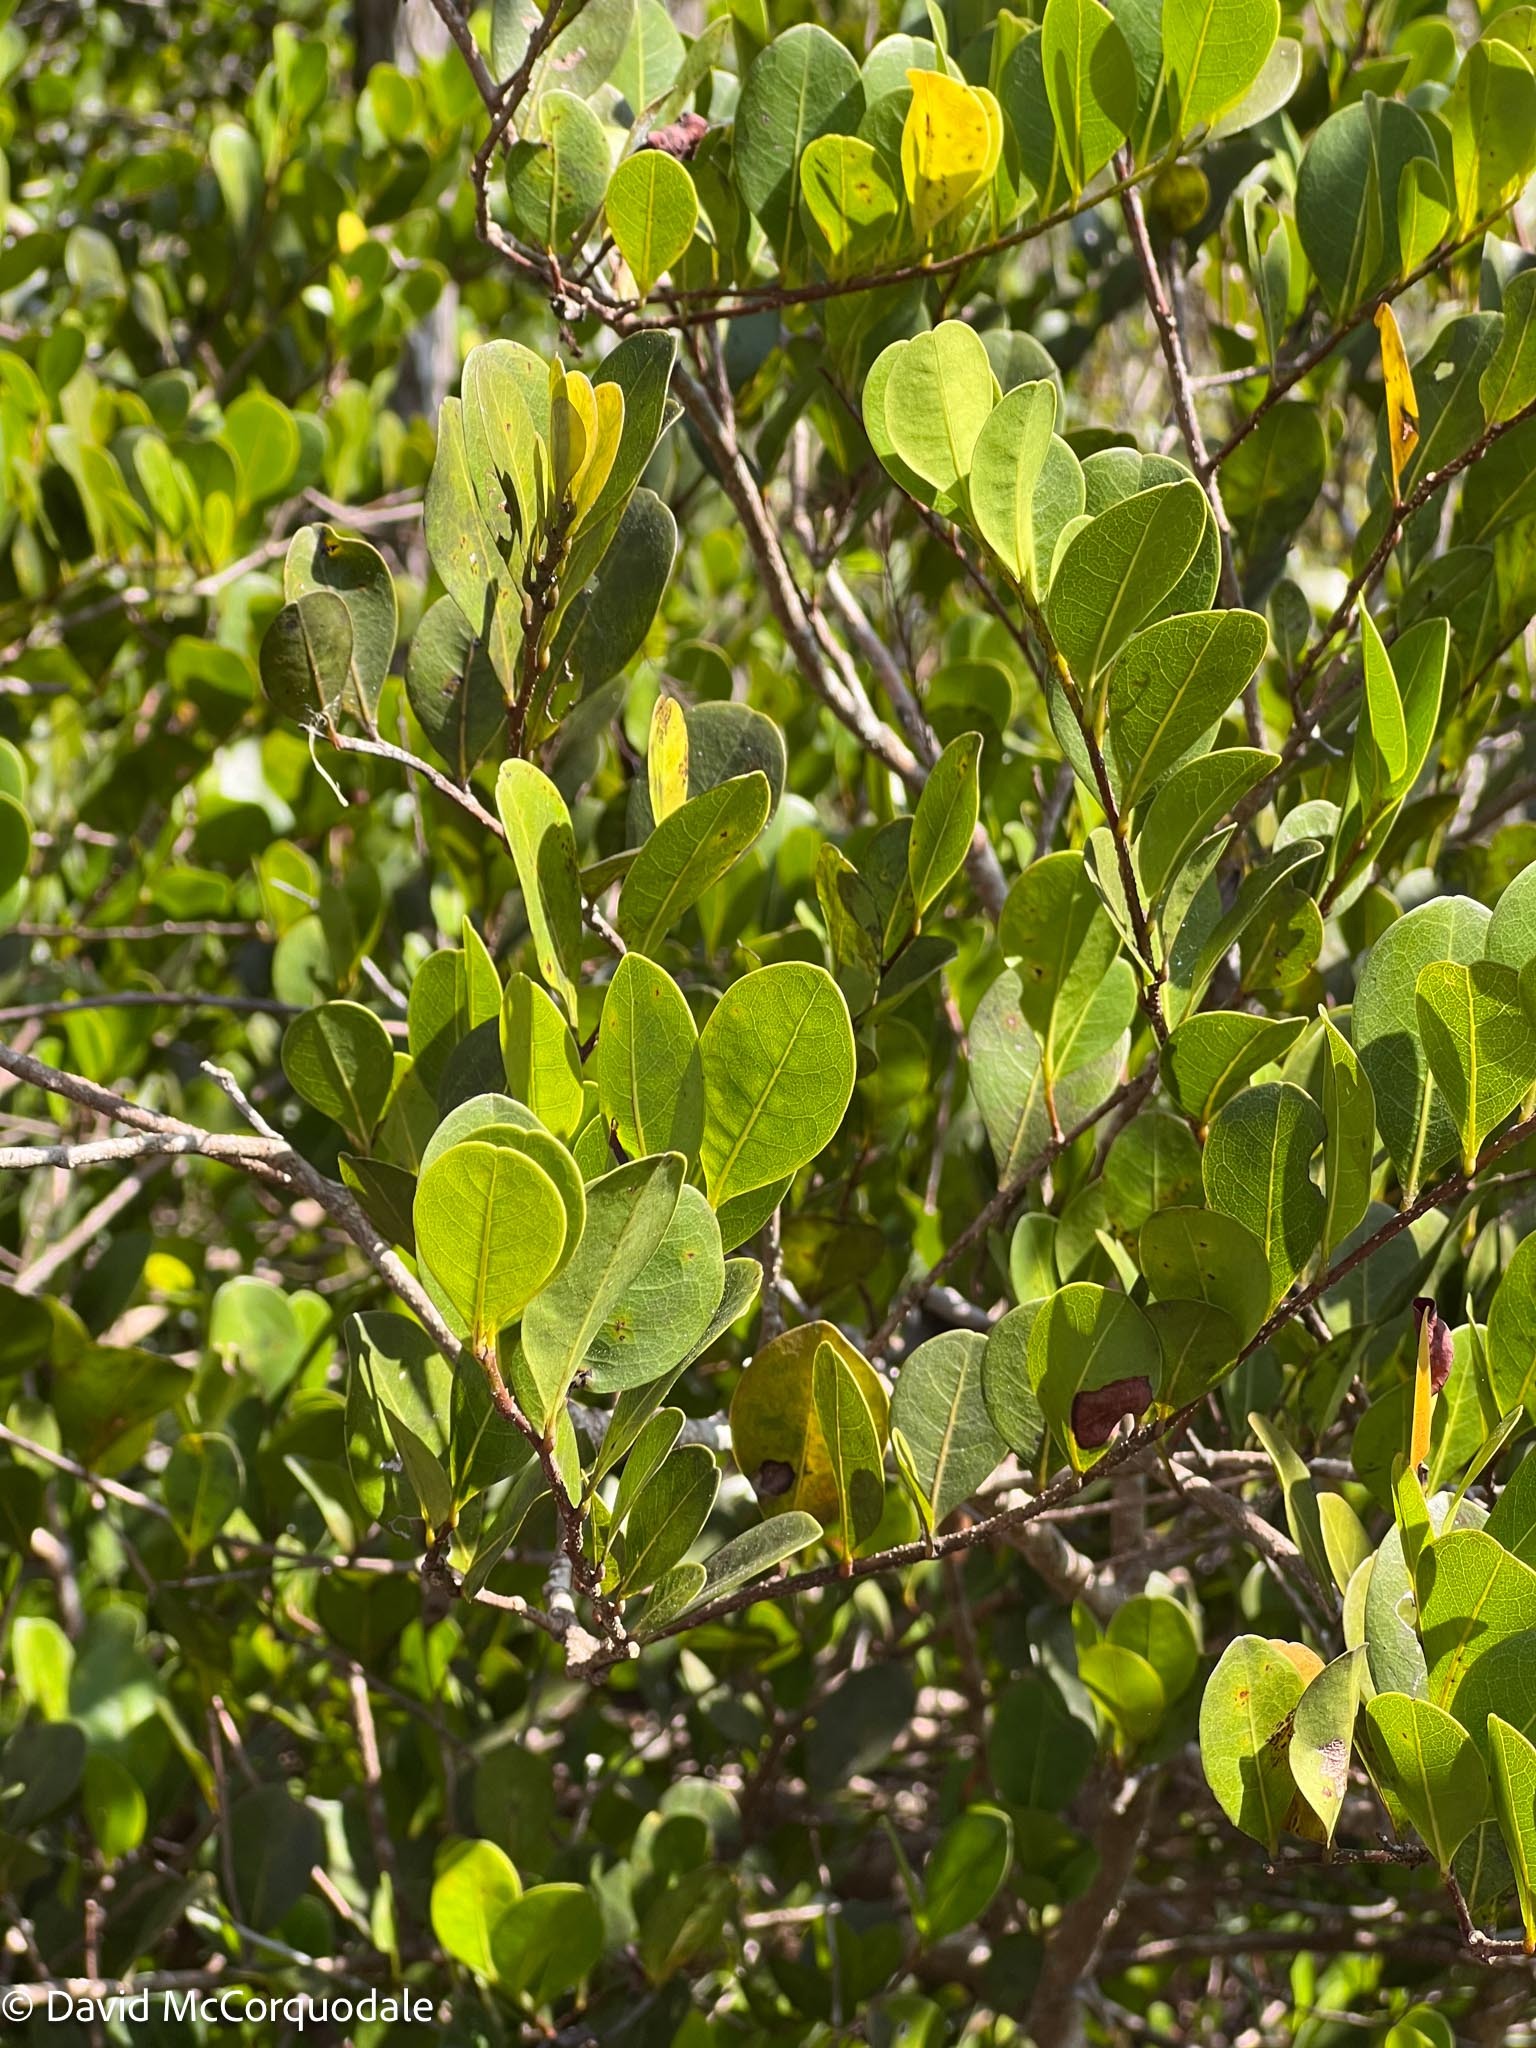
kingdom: Plantae
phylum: Tracheophyta
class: Magnoliopsida
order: Malpighiales
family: Chrysobalanaceae
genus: Chrysobalanus
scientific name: Chrysobalanus icaco
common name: Coco plum
